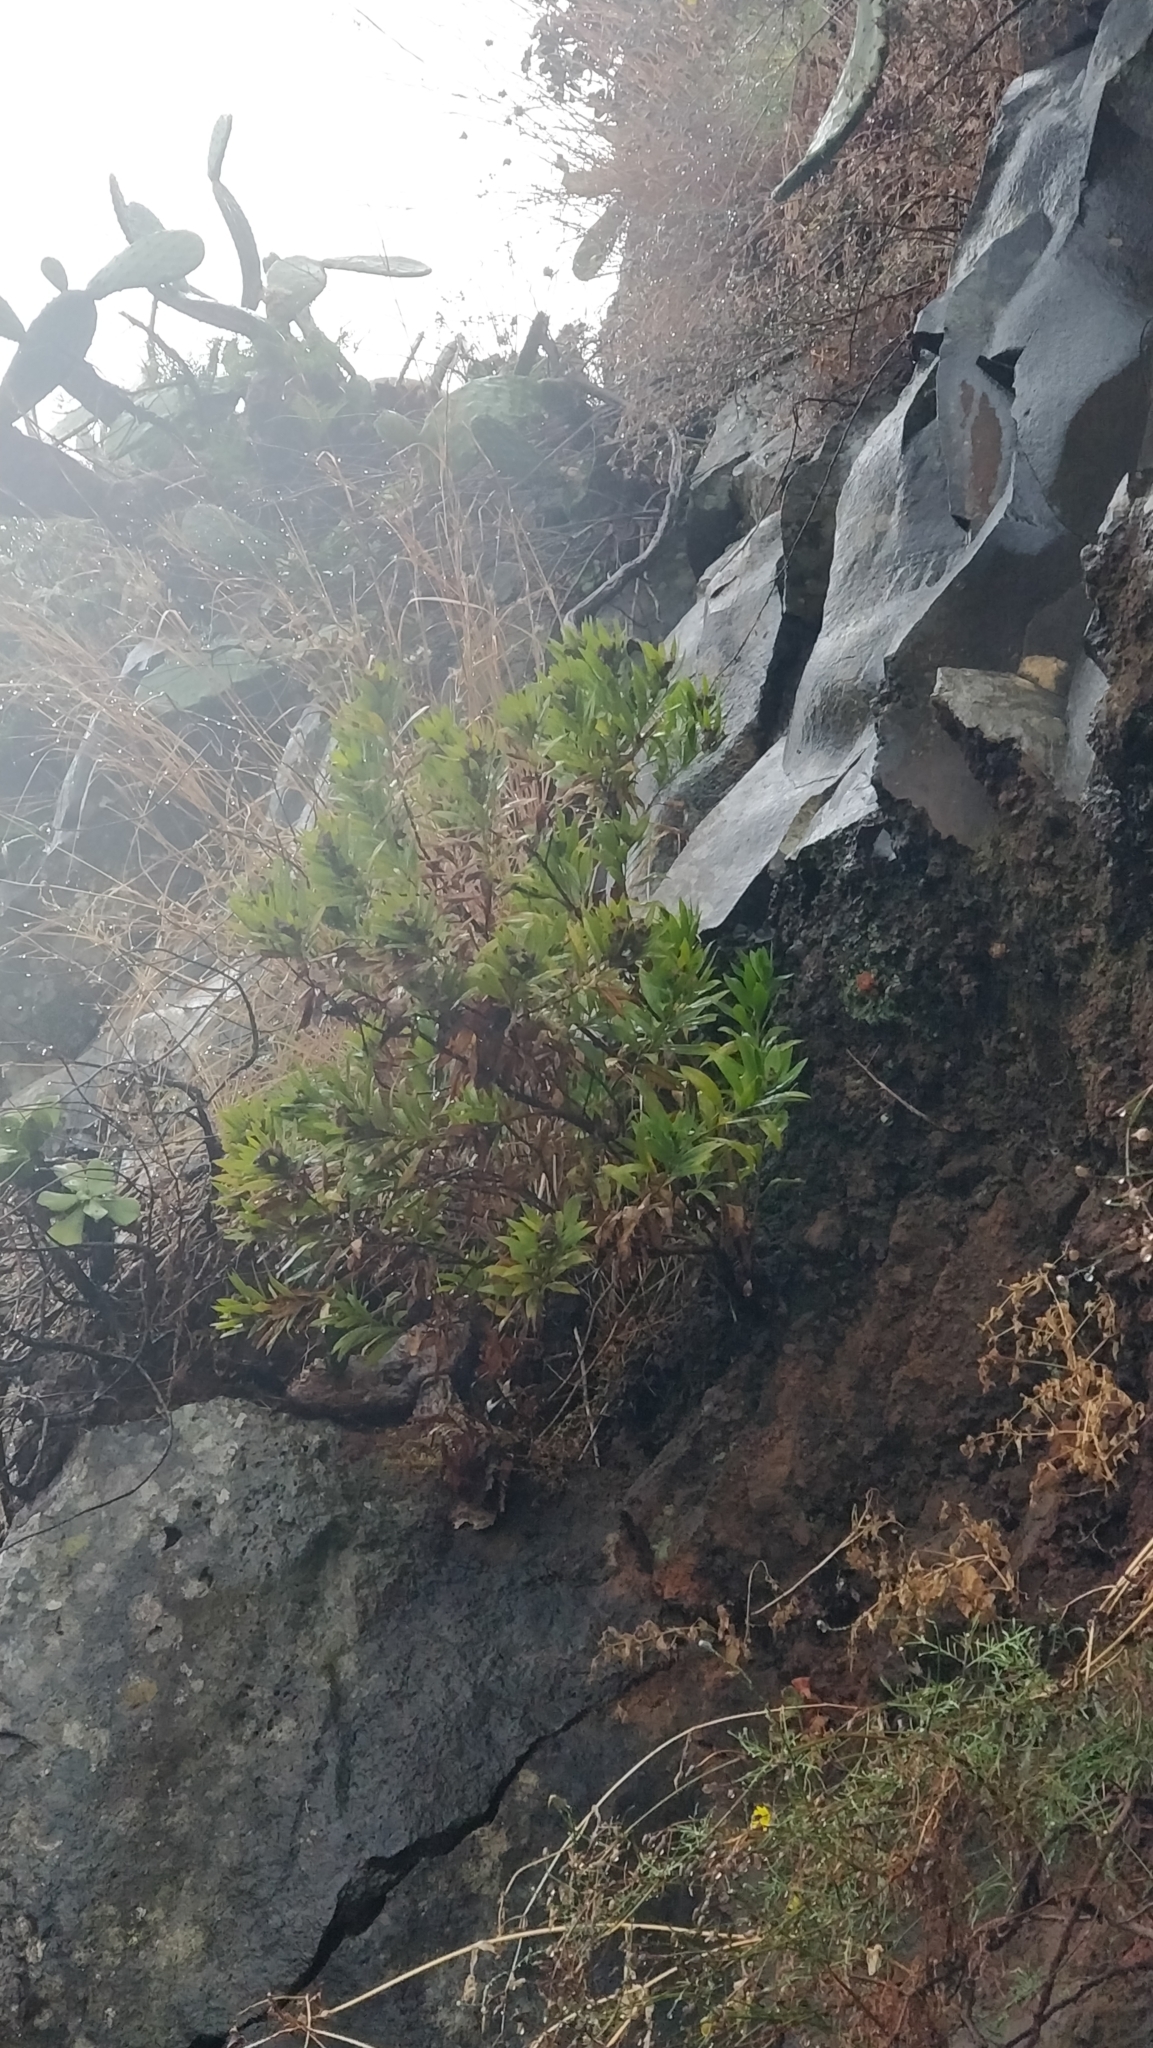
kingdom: Plantae
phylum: Tracheophyta
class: Magnoliopsida
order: Lamiales
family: Plantaginaceae
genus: Globularia
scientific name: Globularia salicina
